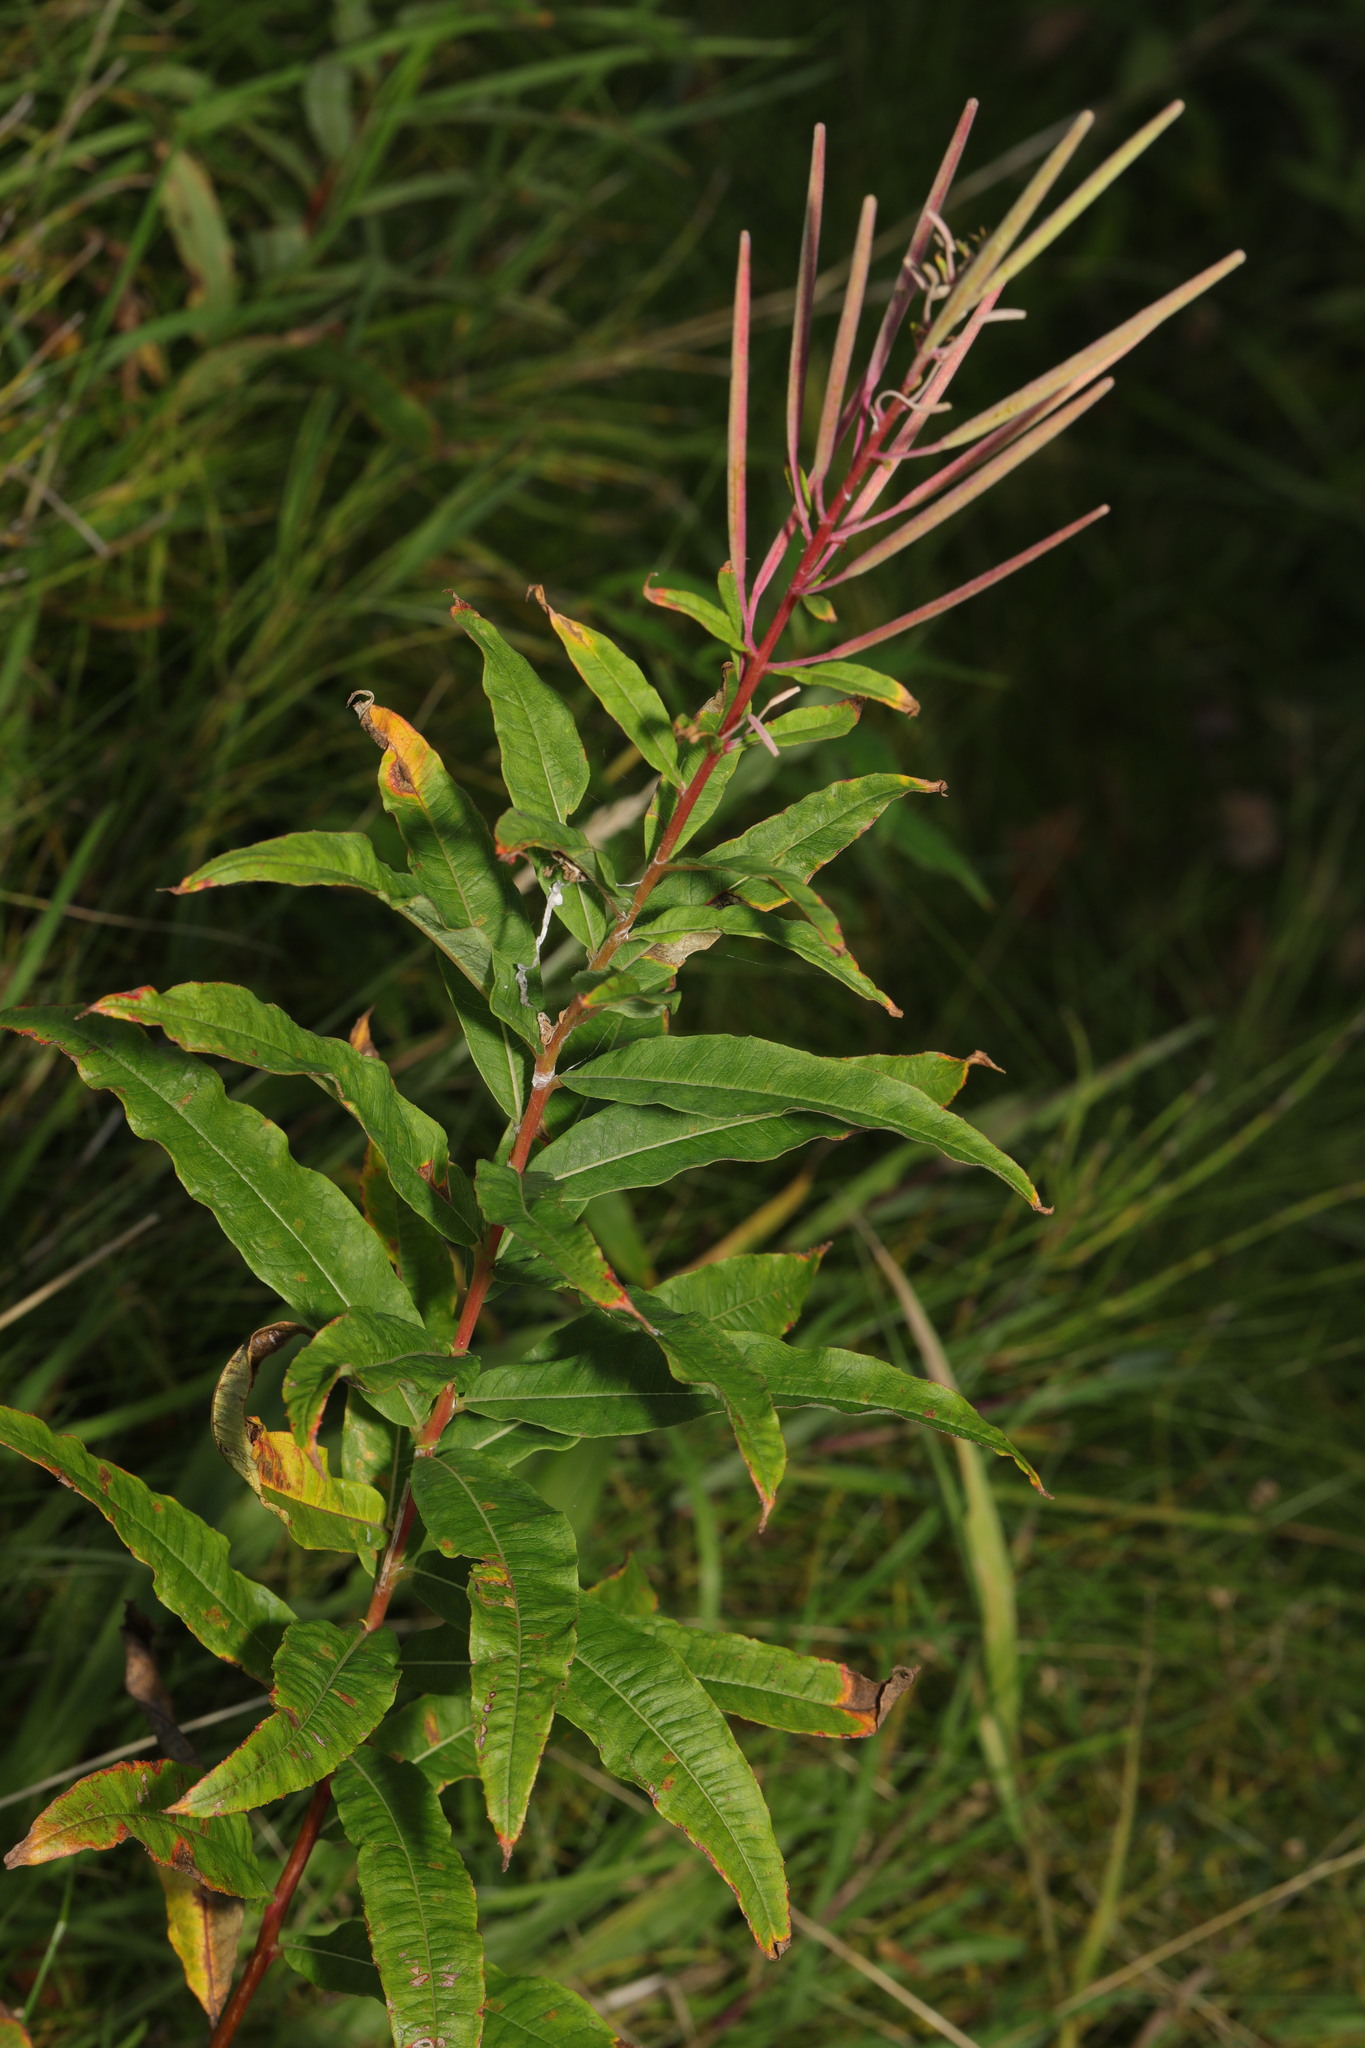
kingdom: Plantae
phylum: Tracheophyta
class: Magnoliopsida
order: Myrtales
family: Onagraceae
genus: Chamaenerion
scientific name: Chamaenerion angustifolium
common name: Fireweed
